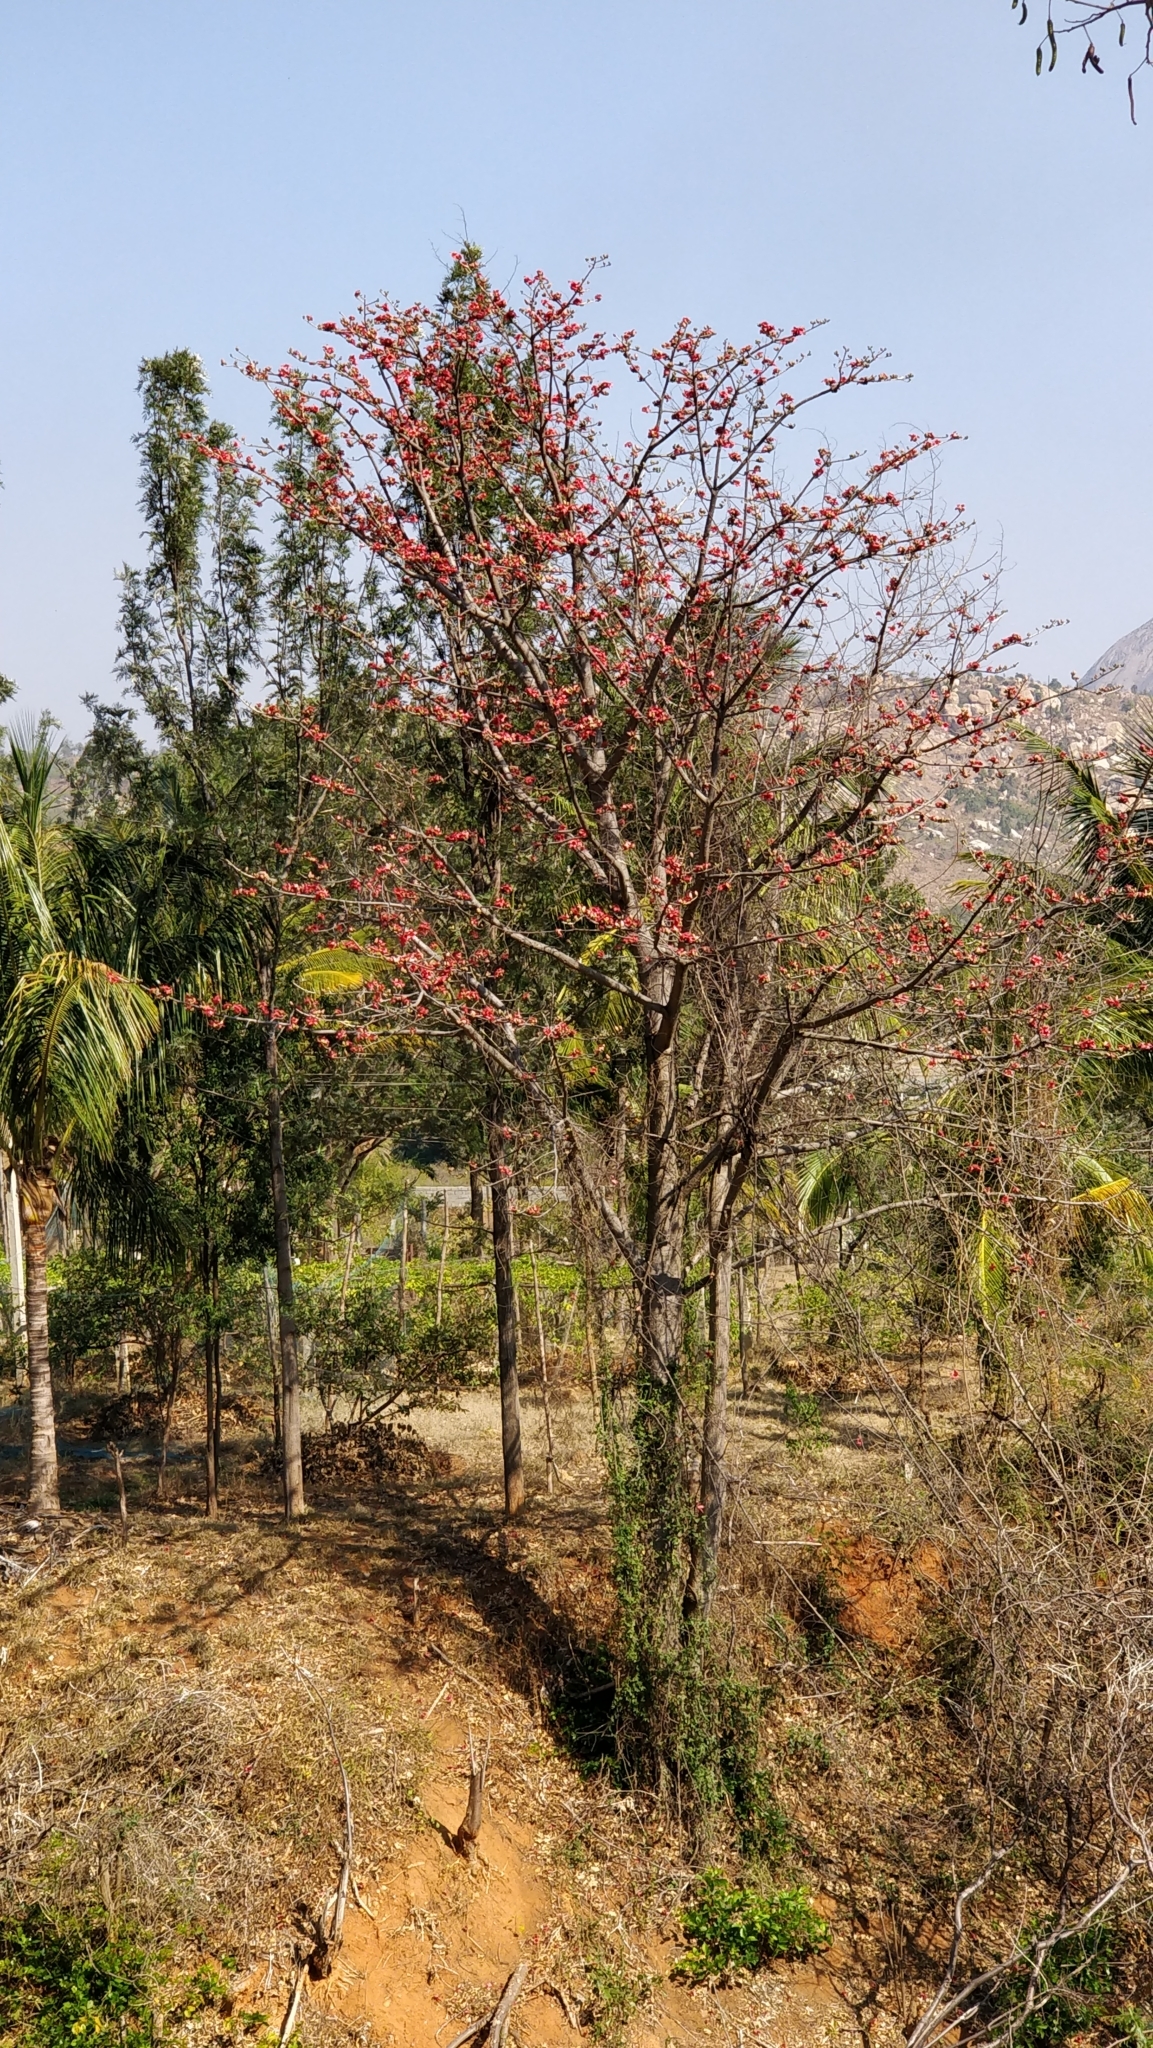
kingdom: Plantae
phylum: Tracheophyta
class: Magnoliopsida
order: Malvales
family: Malvaceae
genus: Bombax
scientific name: Bombax ceiba
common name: Northern-cottonwood
